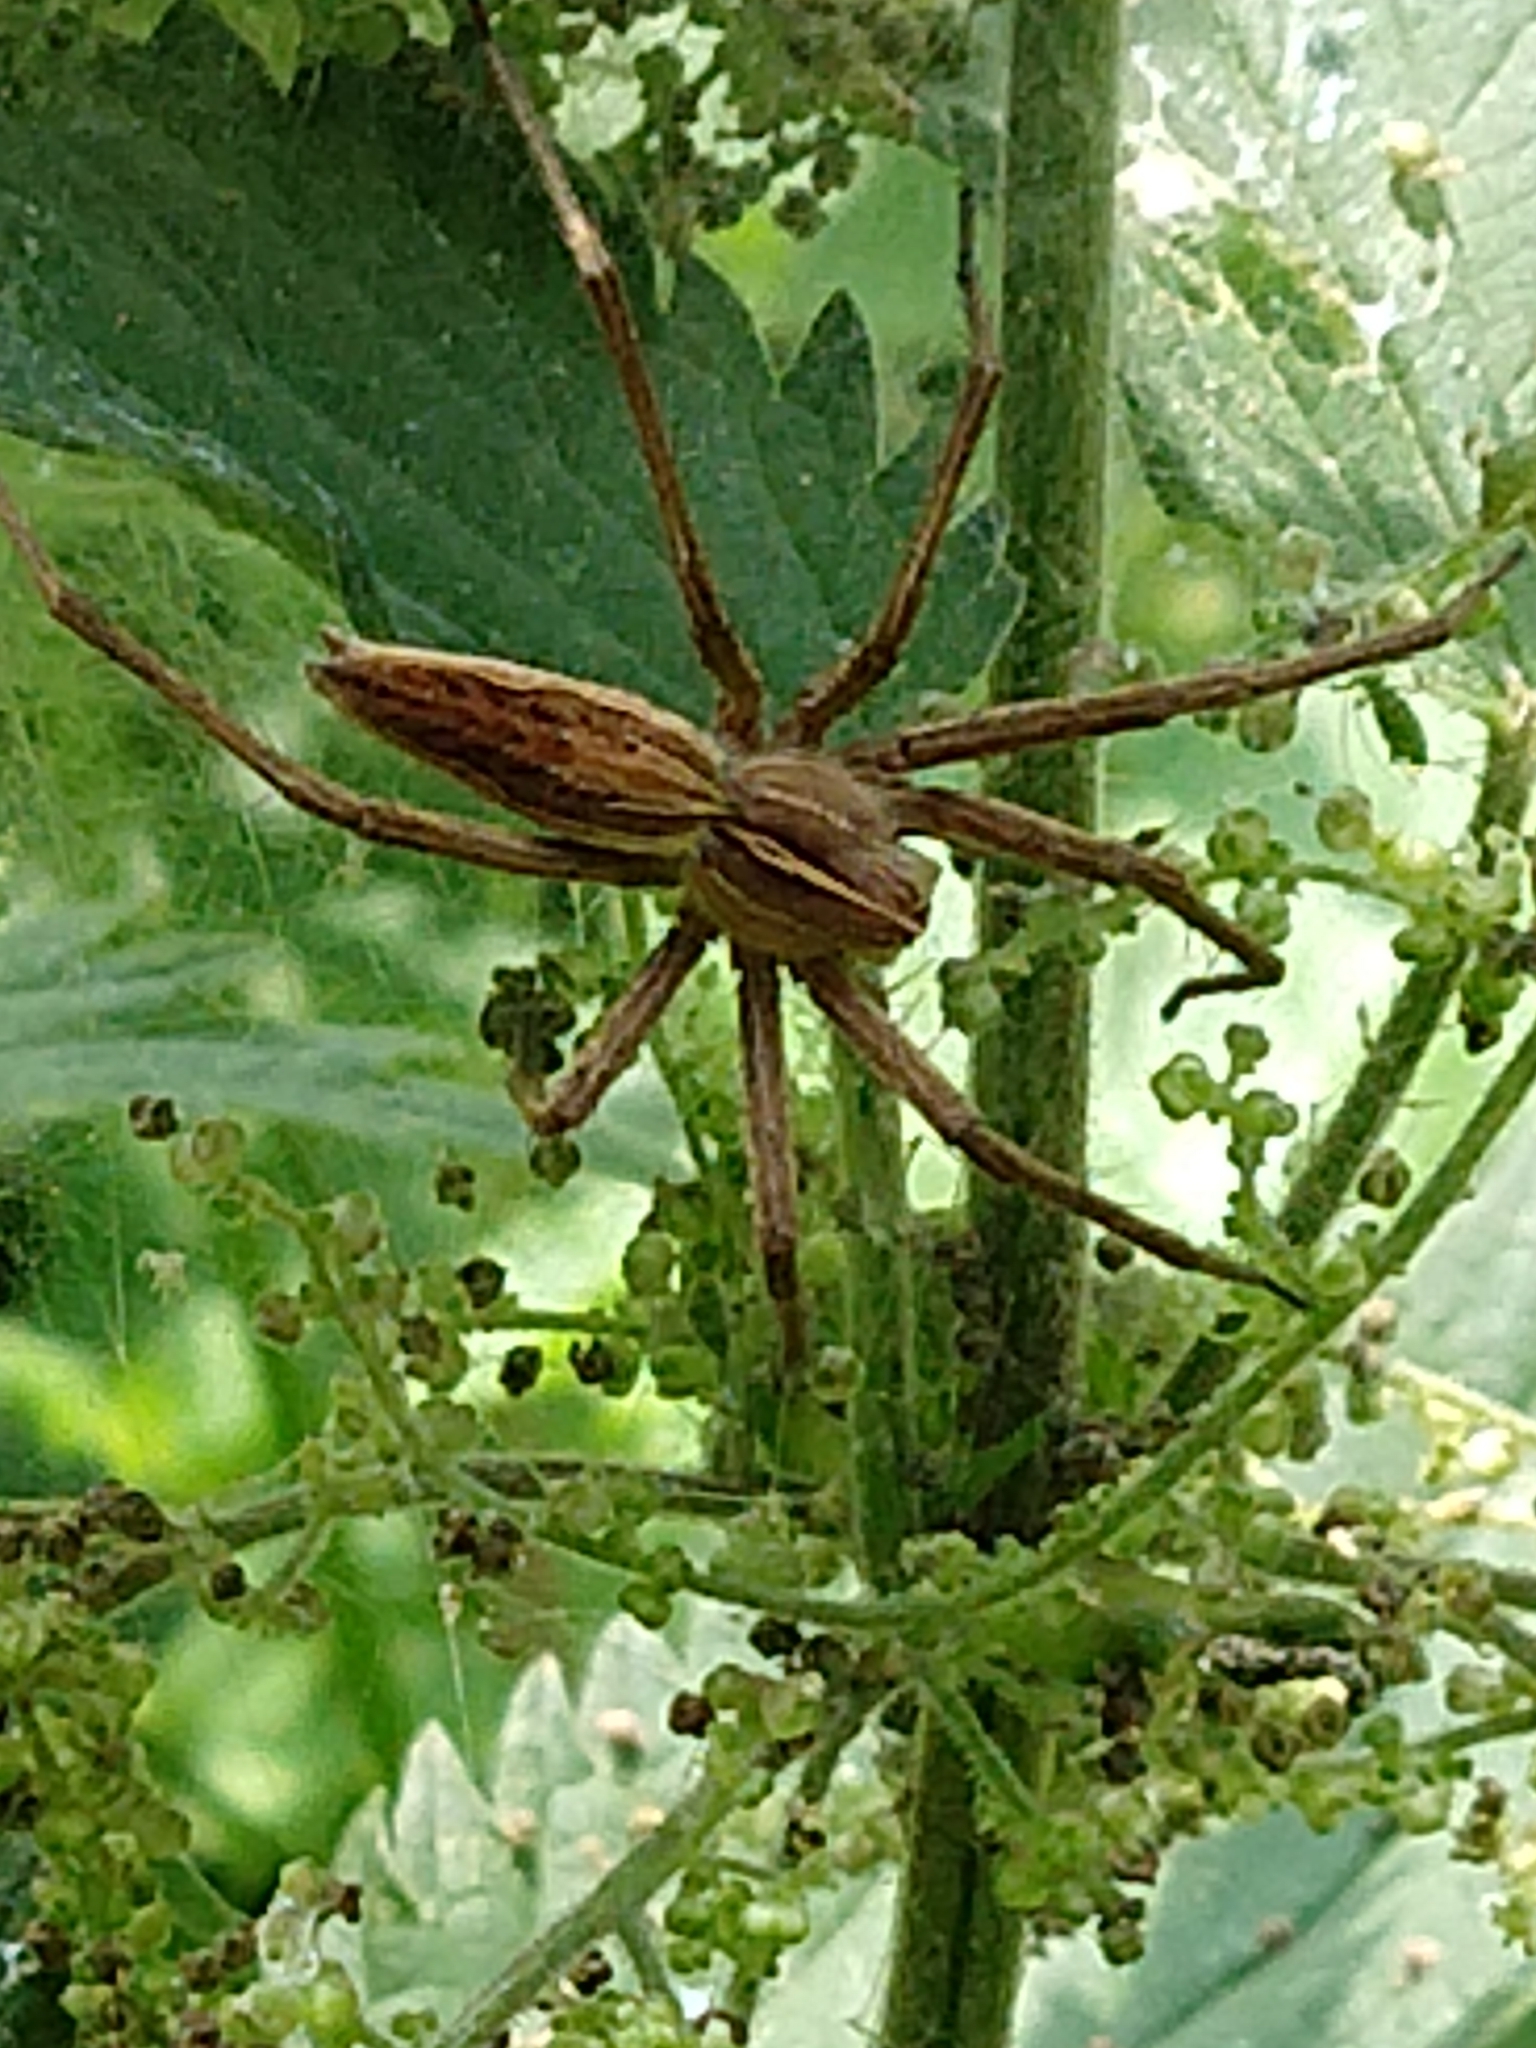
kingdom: Animalia
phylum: Arthropoda
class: Arachnida
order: Araneae
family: Pisauridae
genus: Pisaura
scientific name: Pisaura mirabilis
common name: Tent spider
